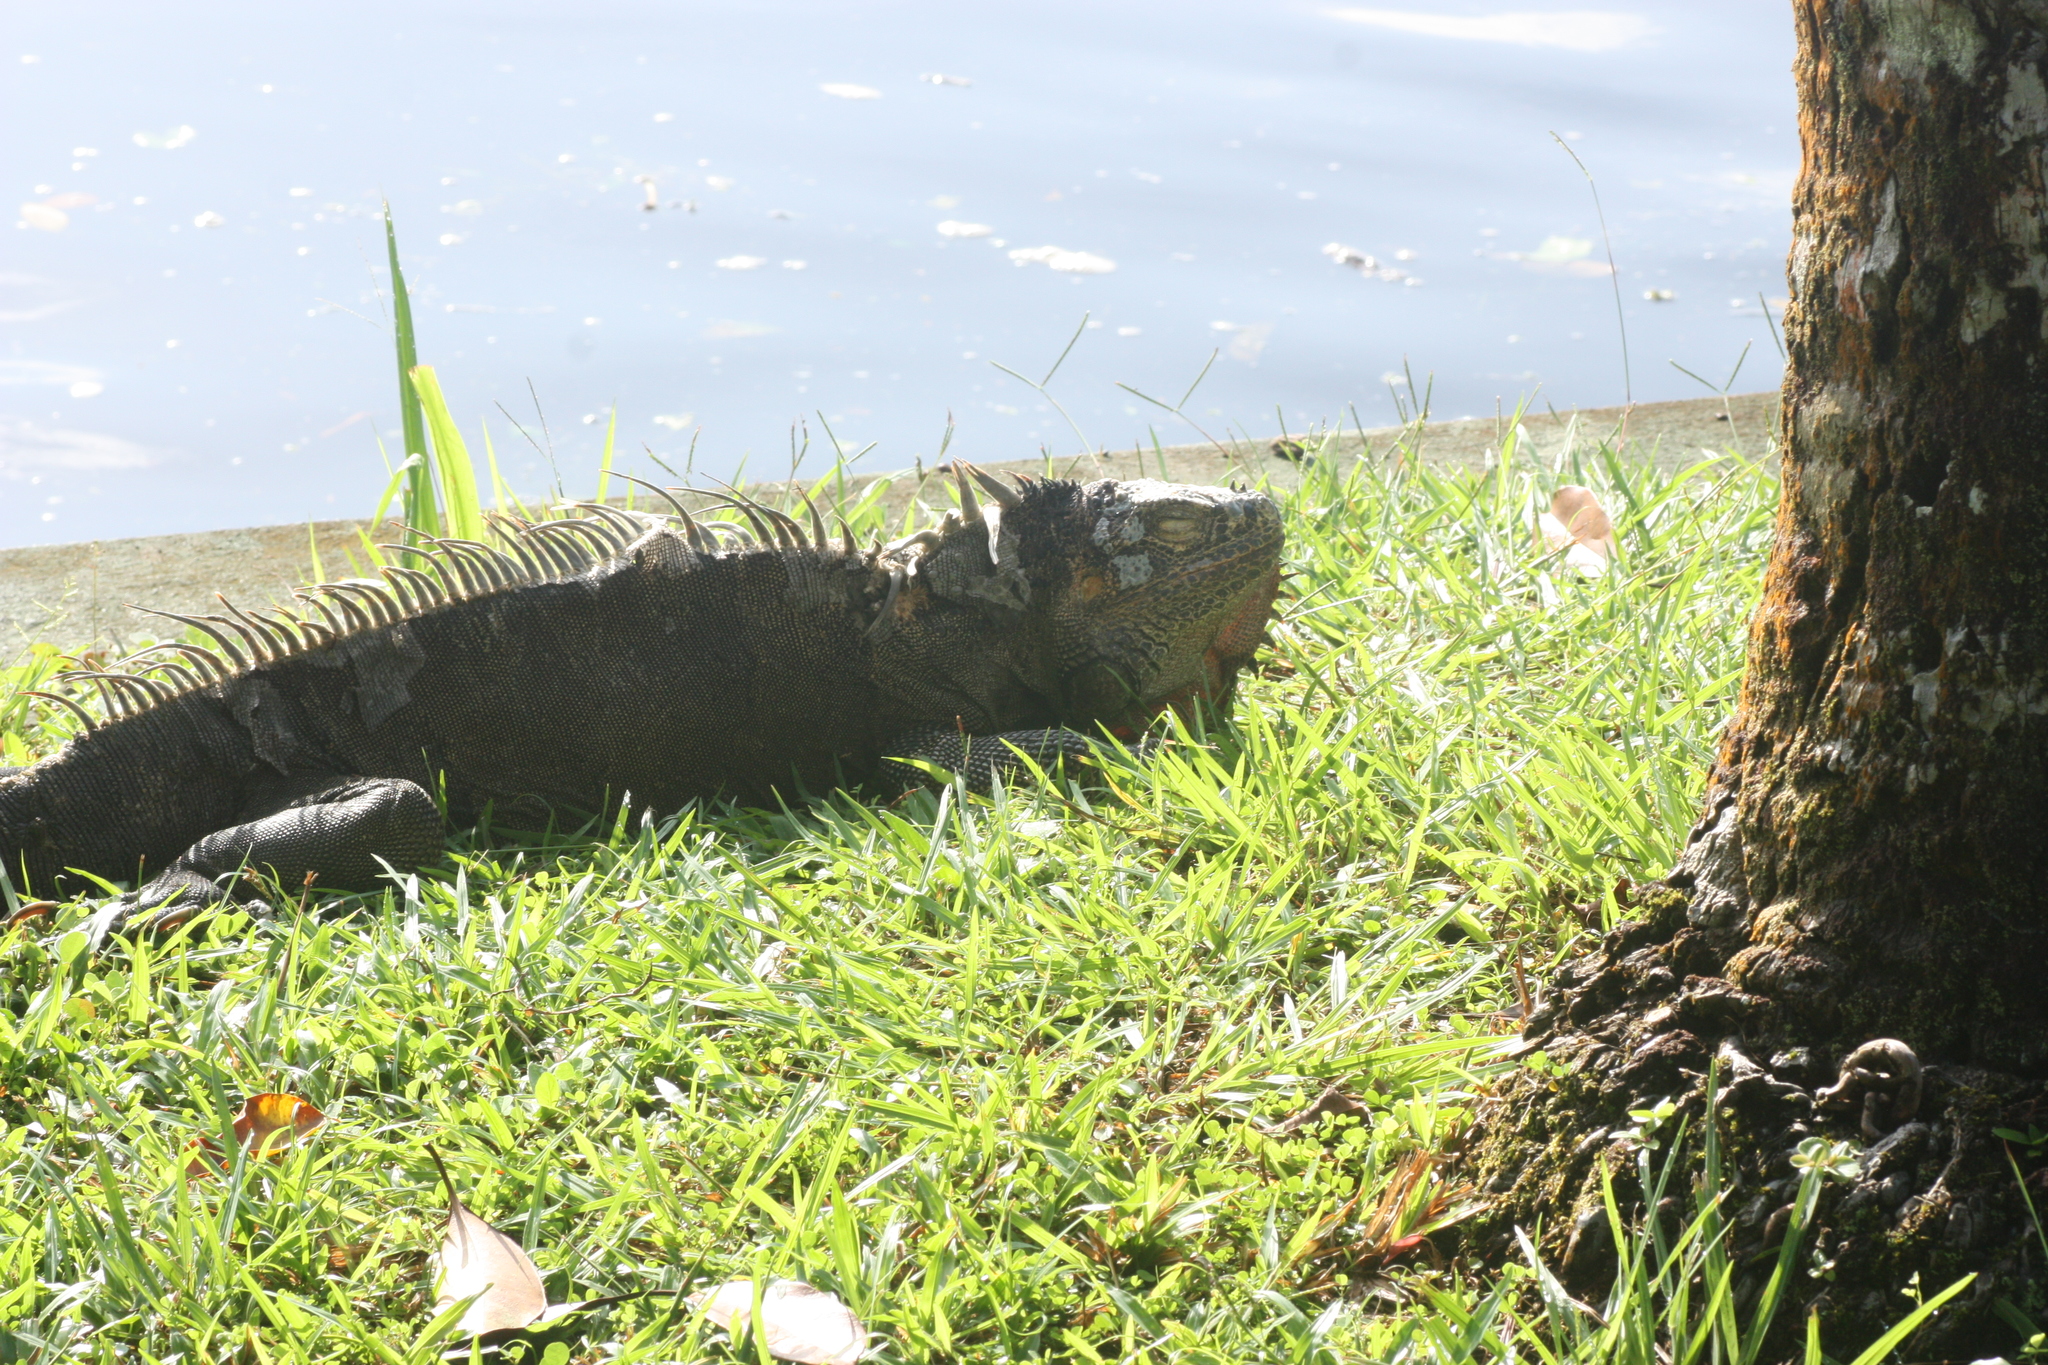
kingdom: Animalia
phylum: Chordata
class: Squamata
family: Iguanidae
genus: Iguana
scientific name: Iguana iguana
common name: Green iguana
